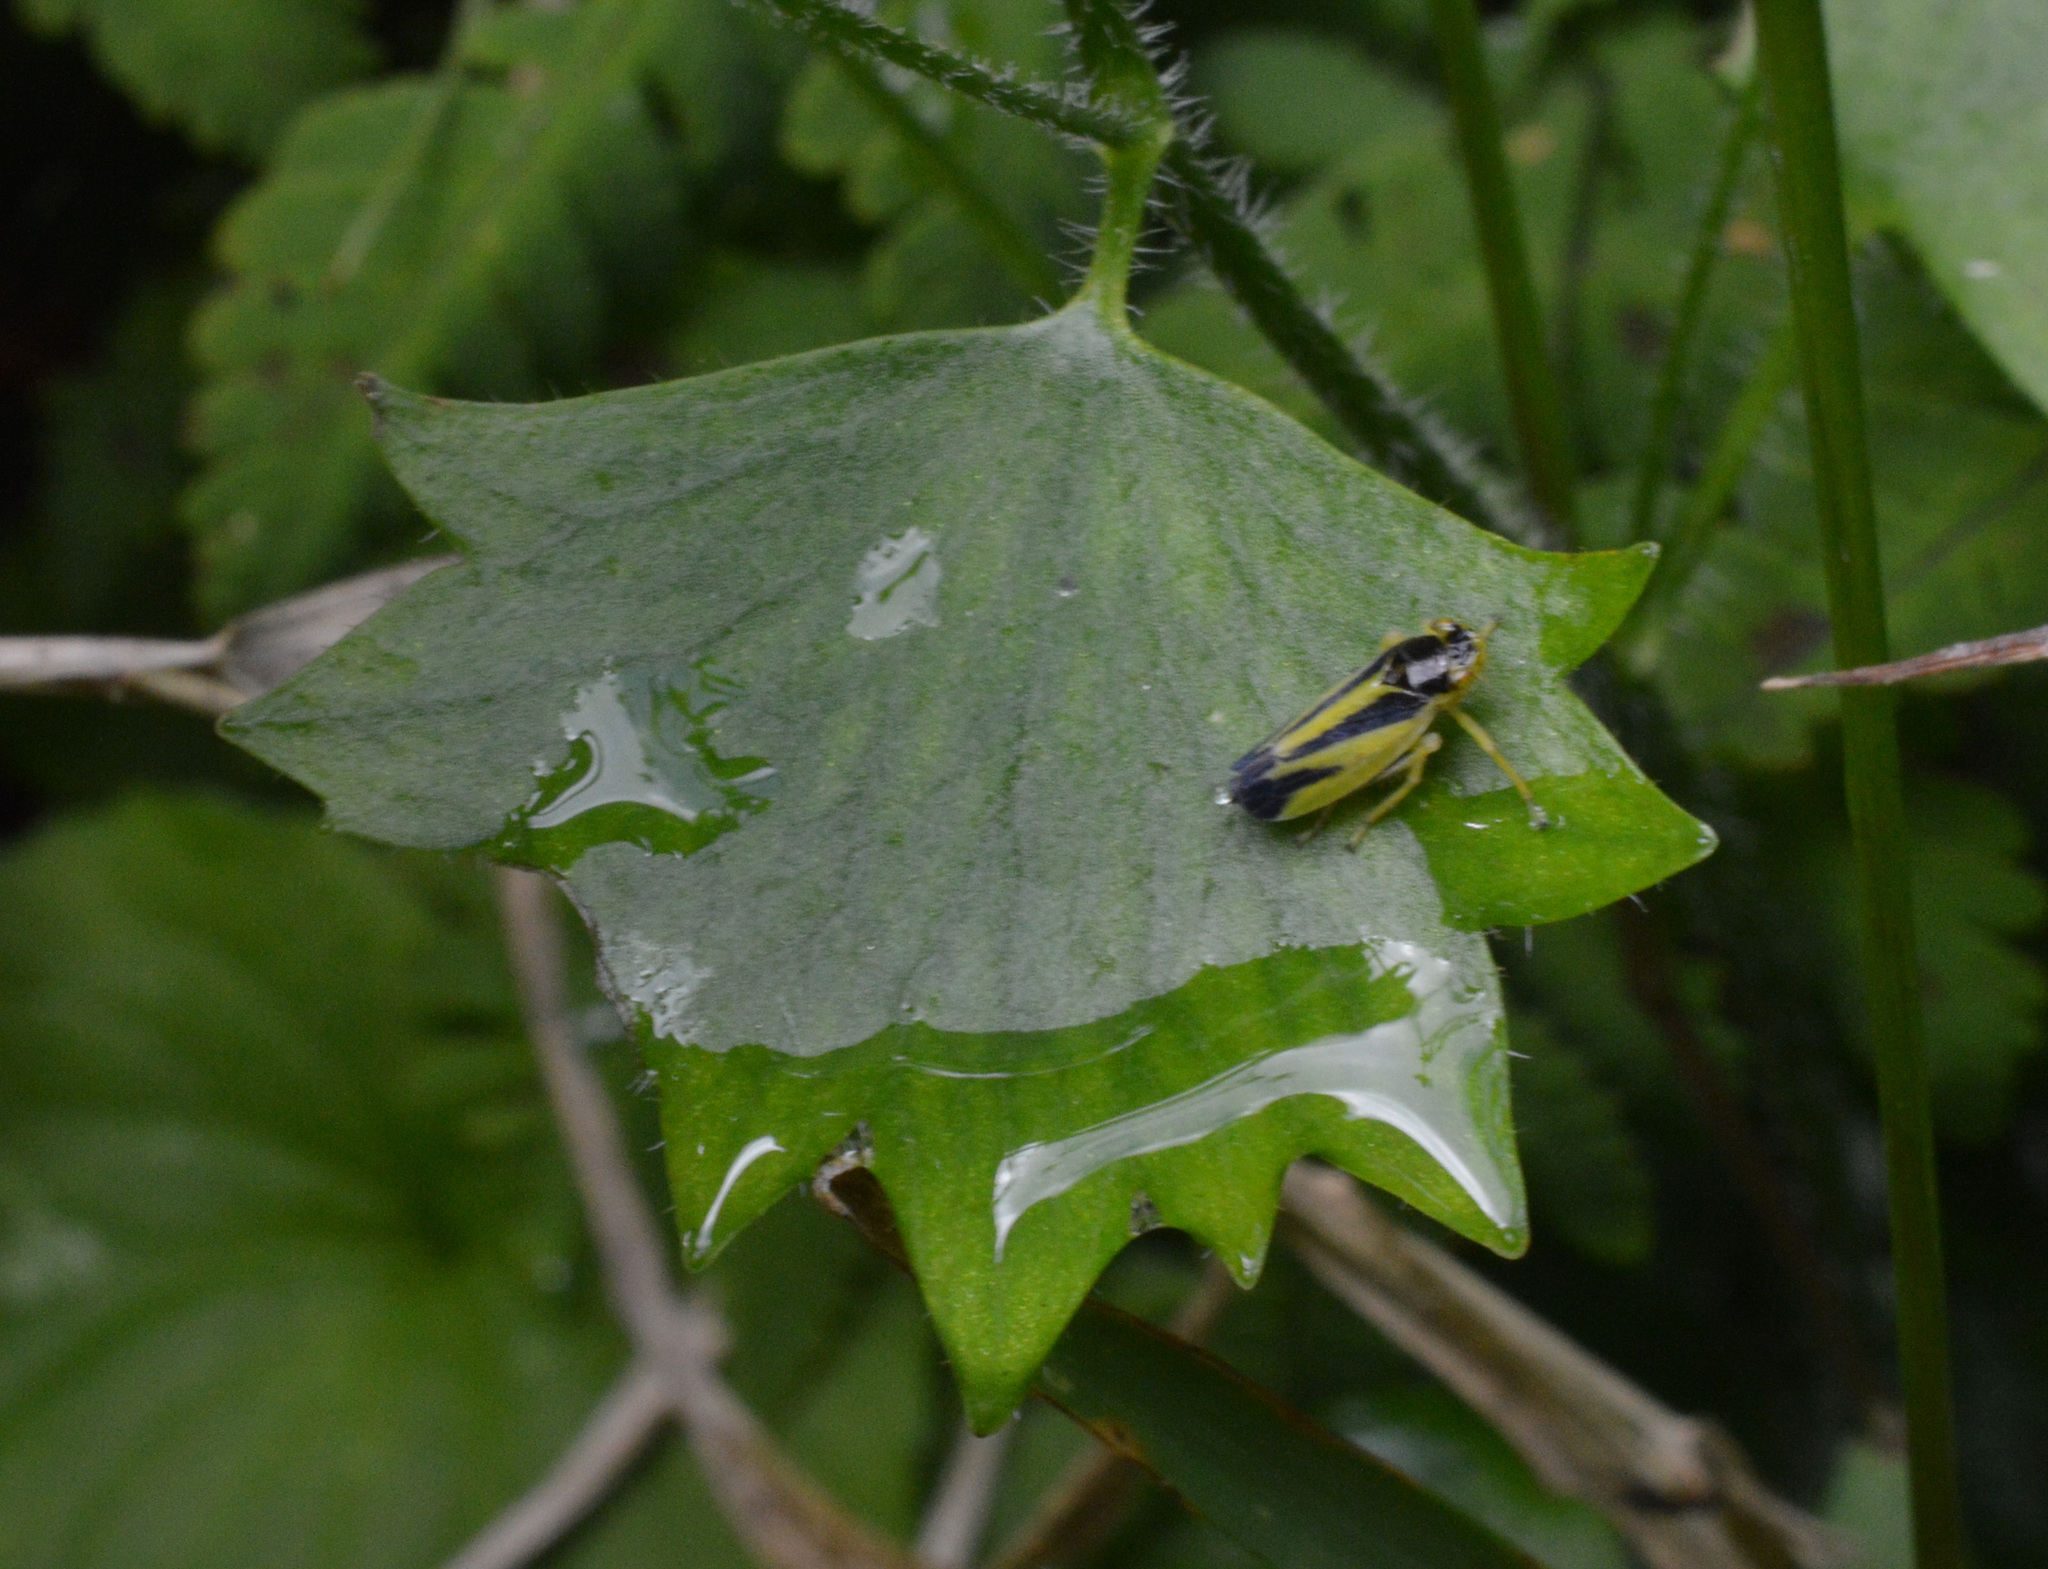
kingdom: Animalia
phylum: Arthropoda
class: Insecta
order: Hemiptera
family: Cicadellidae
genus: Evacanthus
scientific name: Evacanthus interruptus
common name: Leafhopper
